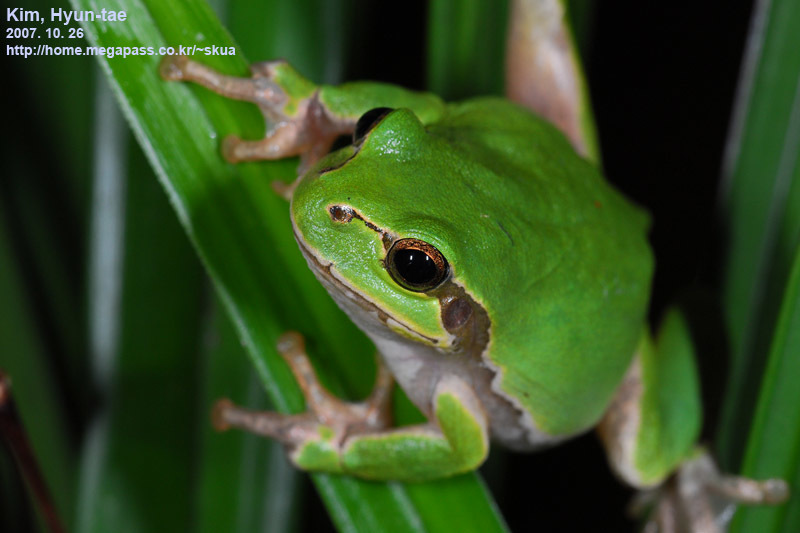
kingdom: Animalia
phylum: Chordata
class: Amphibia
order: Anura
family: Hylidae
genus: Dryophytes
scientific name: Dryophytes japonicus
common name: Japanese treefrog
